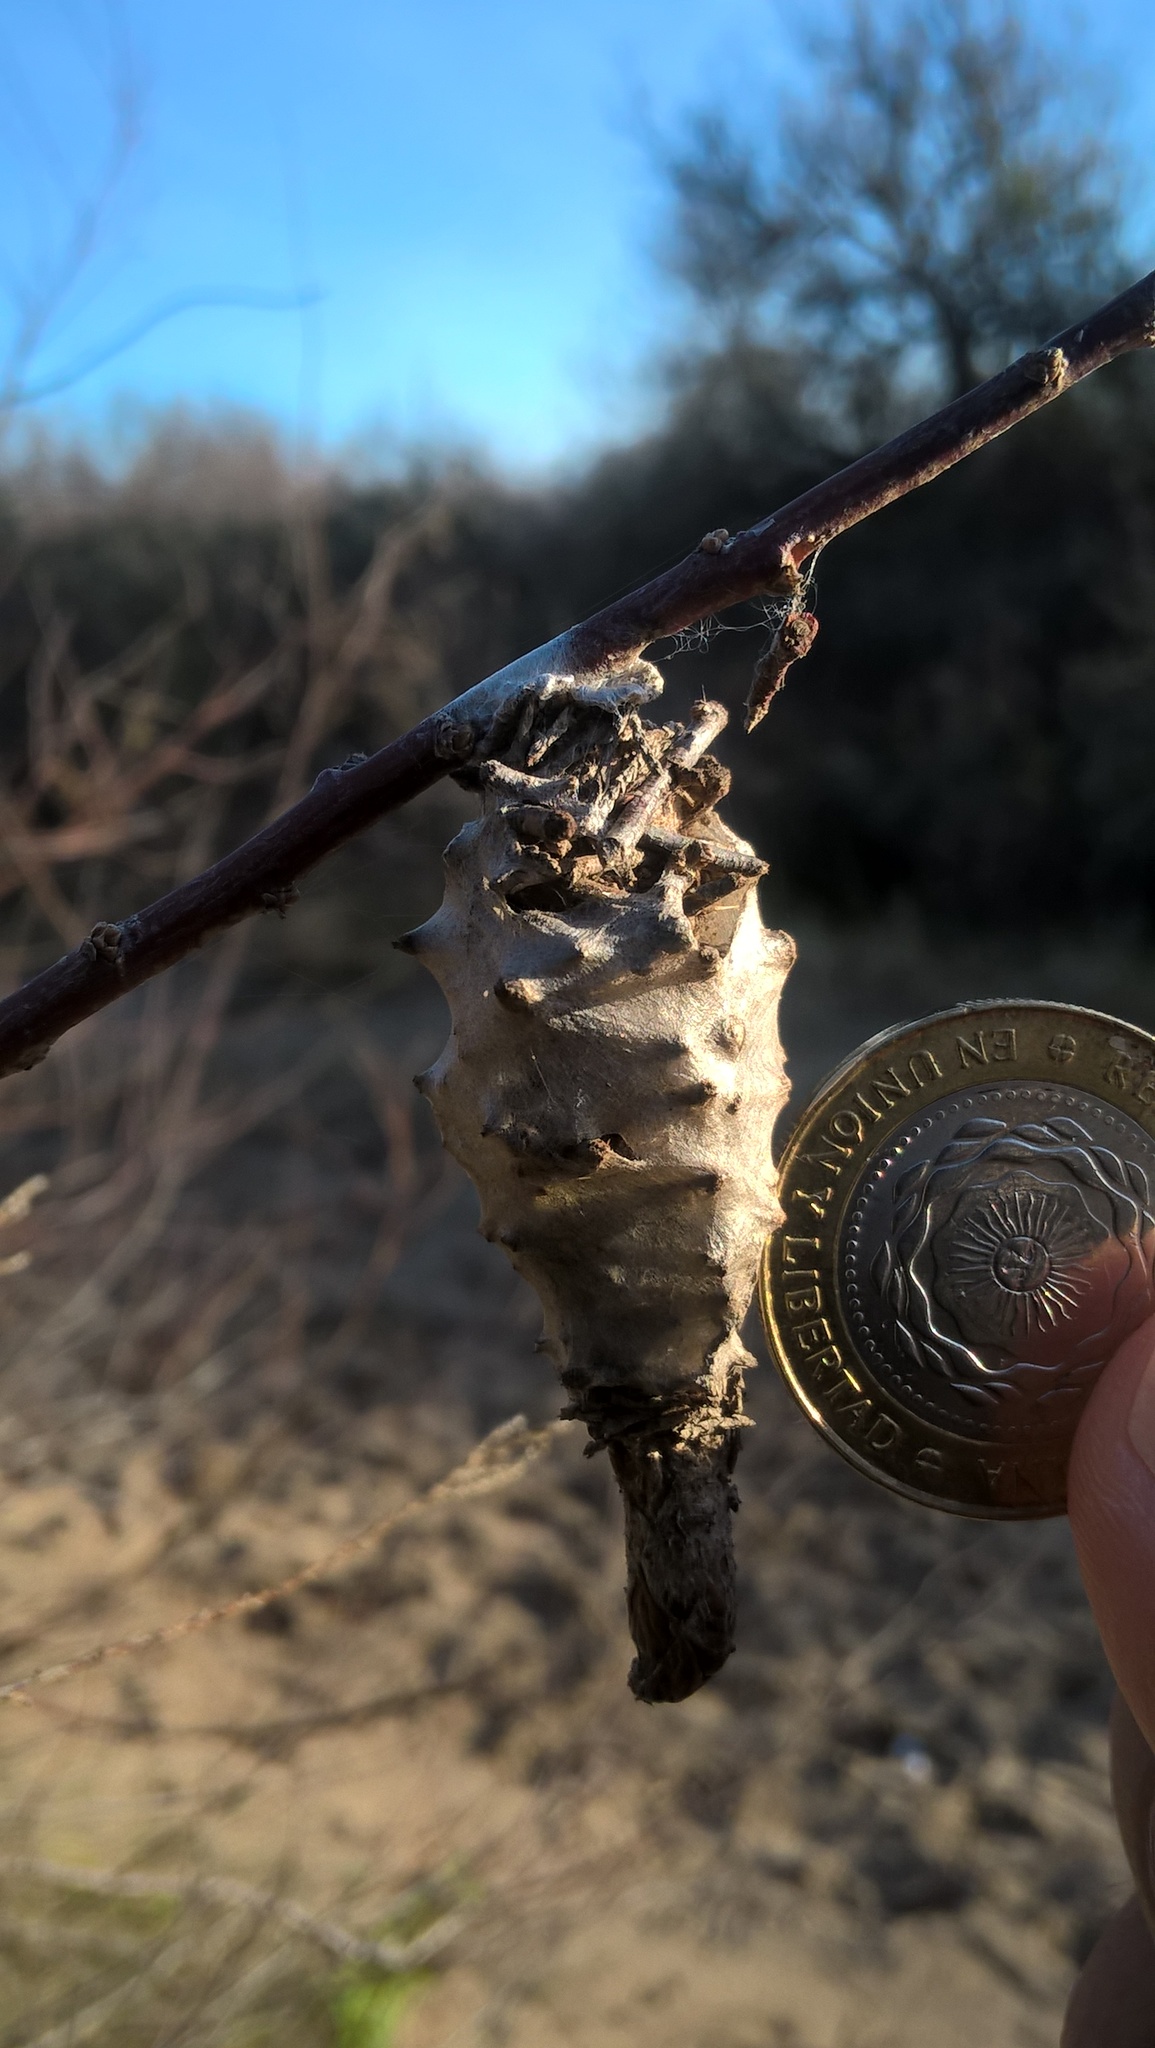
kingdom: Animalia
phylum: Arthropoda
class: Insecta
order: Lepidoptera
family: Psychidae
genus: Oiketicus
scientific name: Oiketicus
